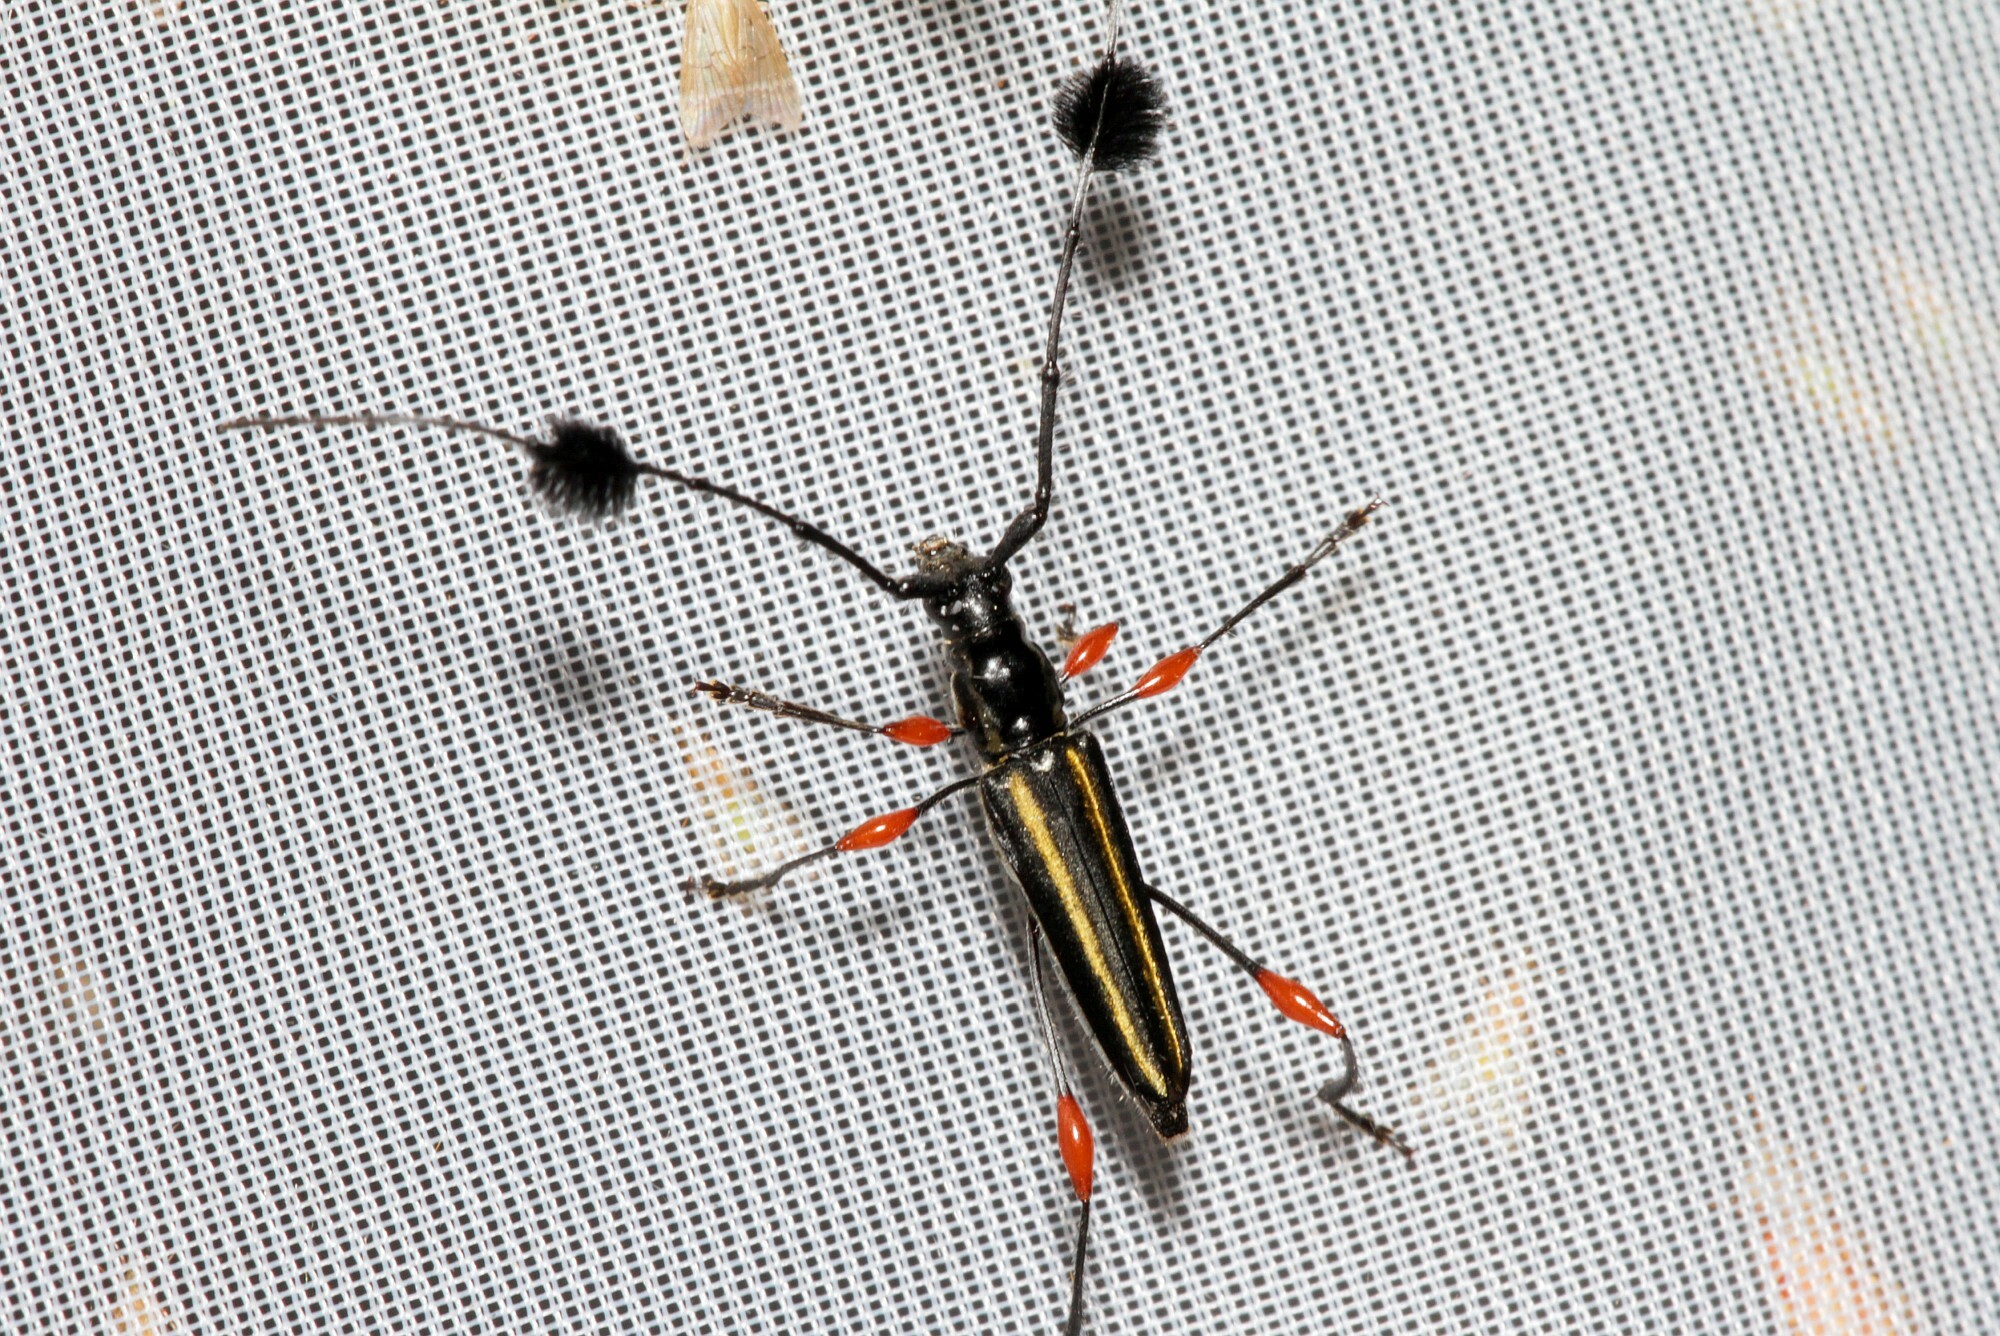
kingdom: Animalia
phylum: Arthropoda
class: Insecta
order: Coleoptera
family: Cerambycidae
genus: Cosmisoma
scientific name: Cosmisoma lineatum
